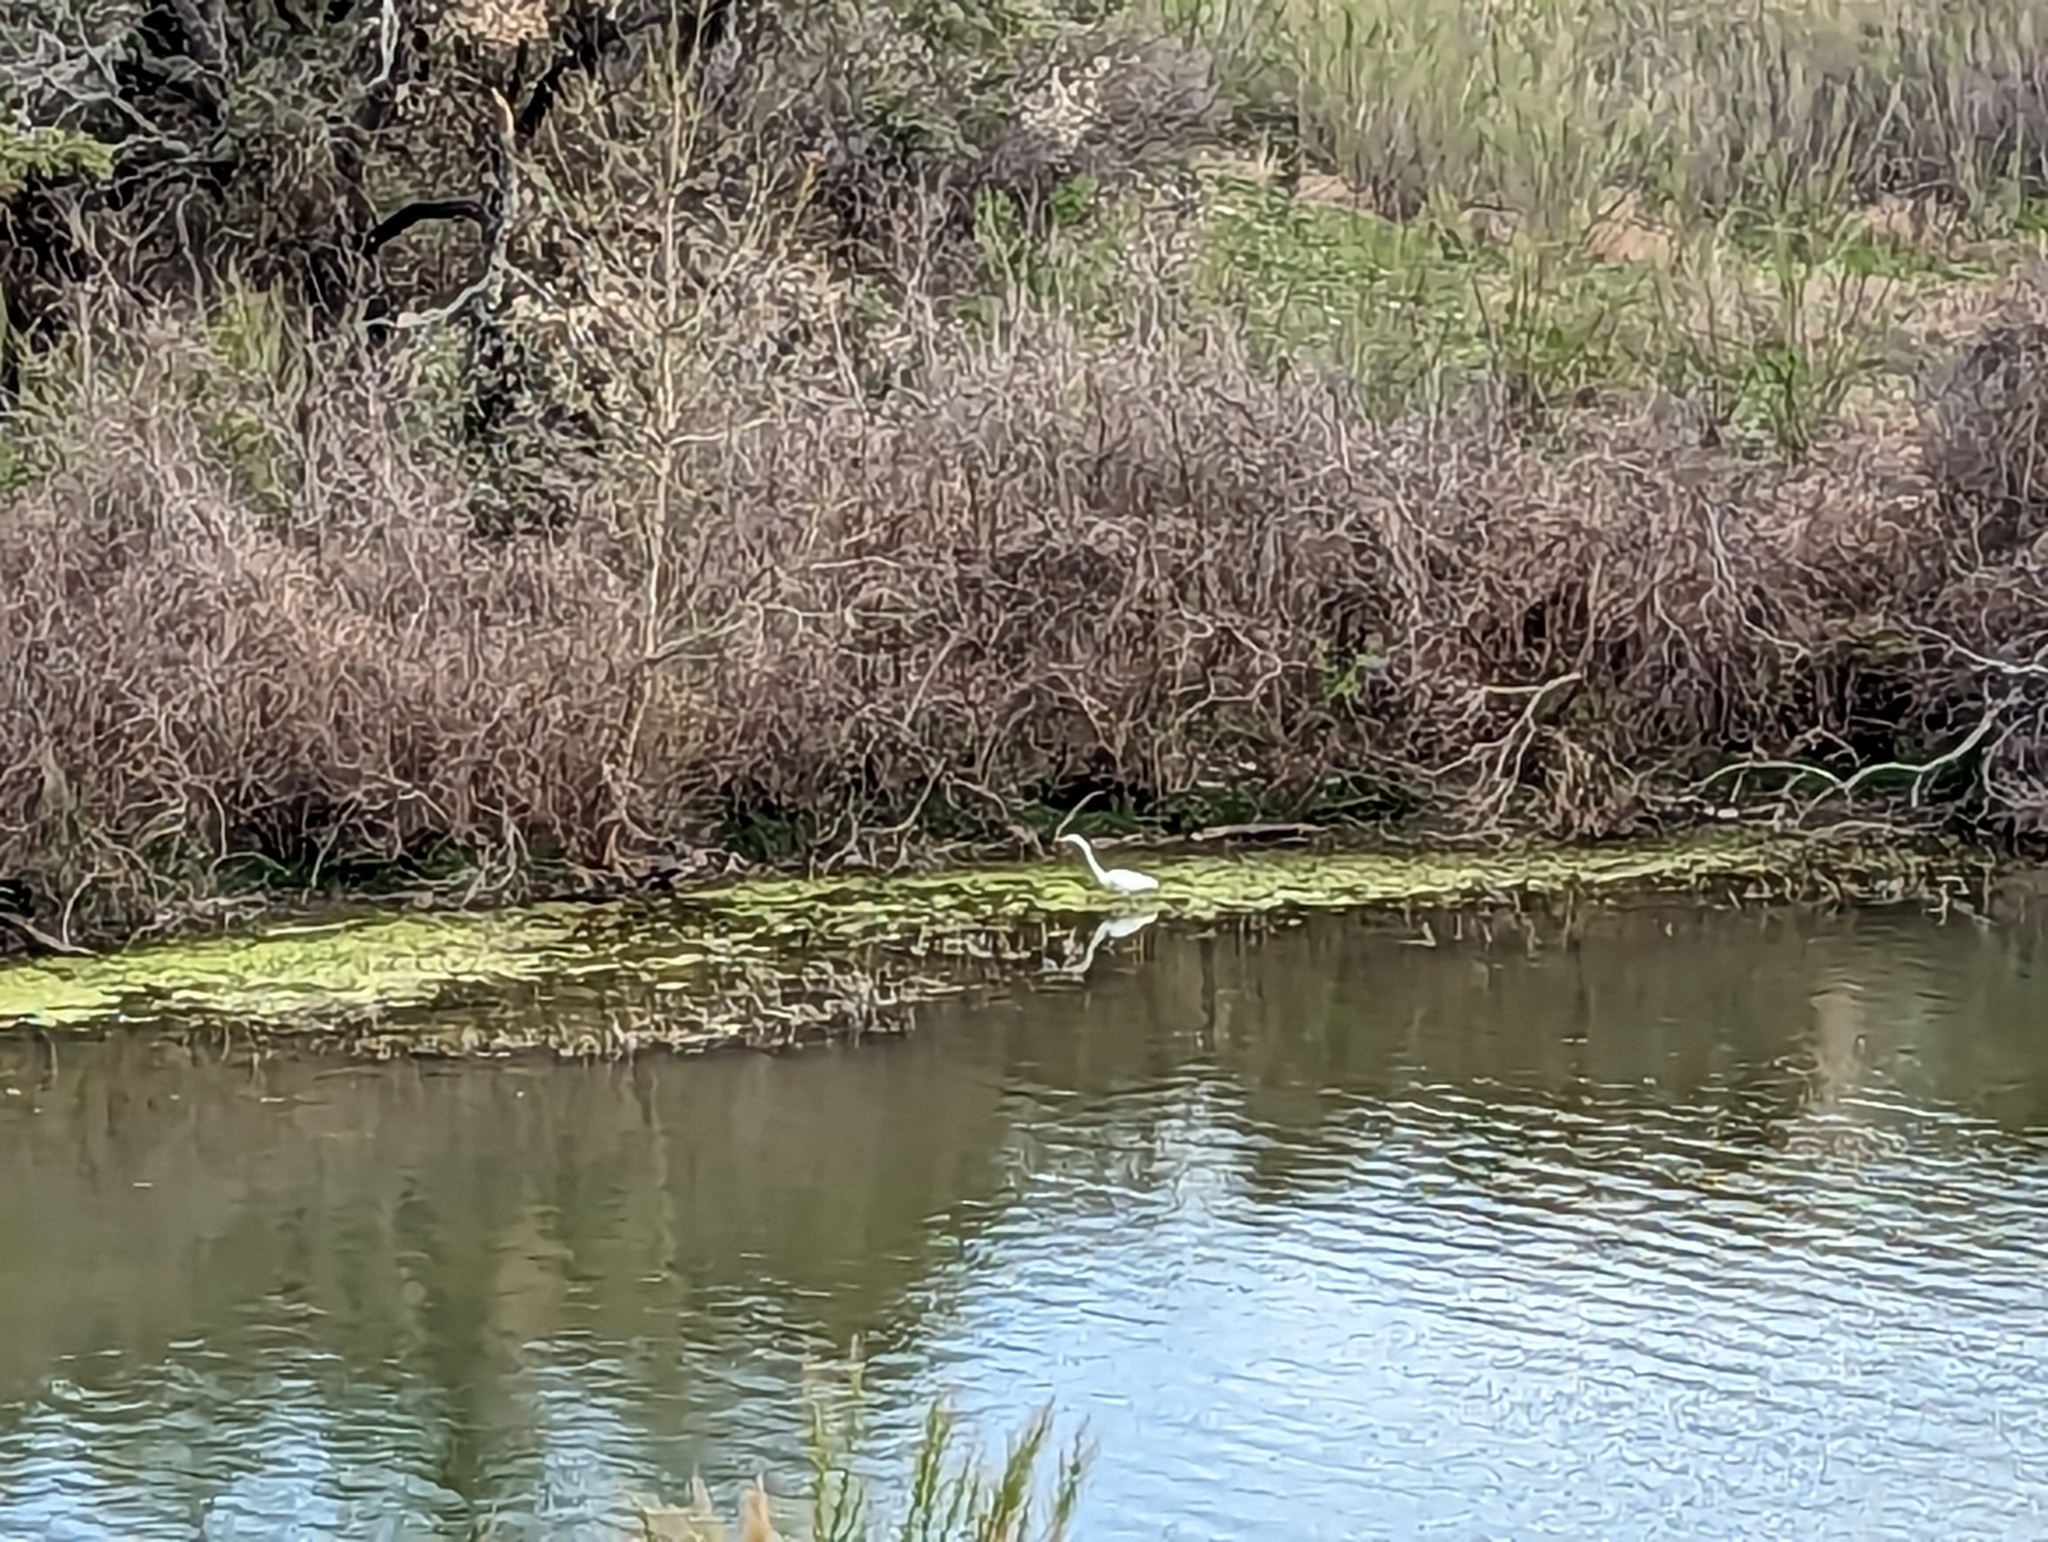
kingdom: Animalia
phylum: Chordata
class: Aves
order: Pelecaniformes
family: Ardeidae
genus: Ardea
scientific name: Ardea alba
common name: Great egret
